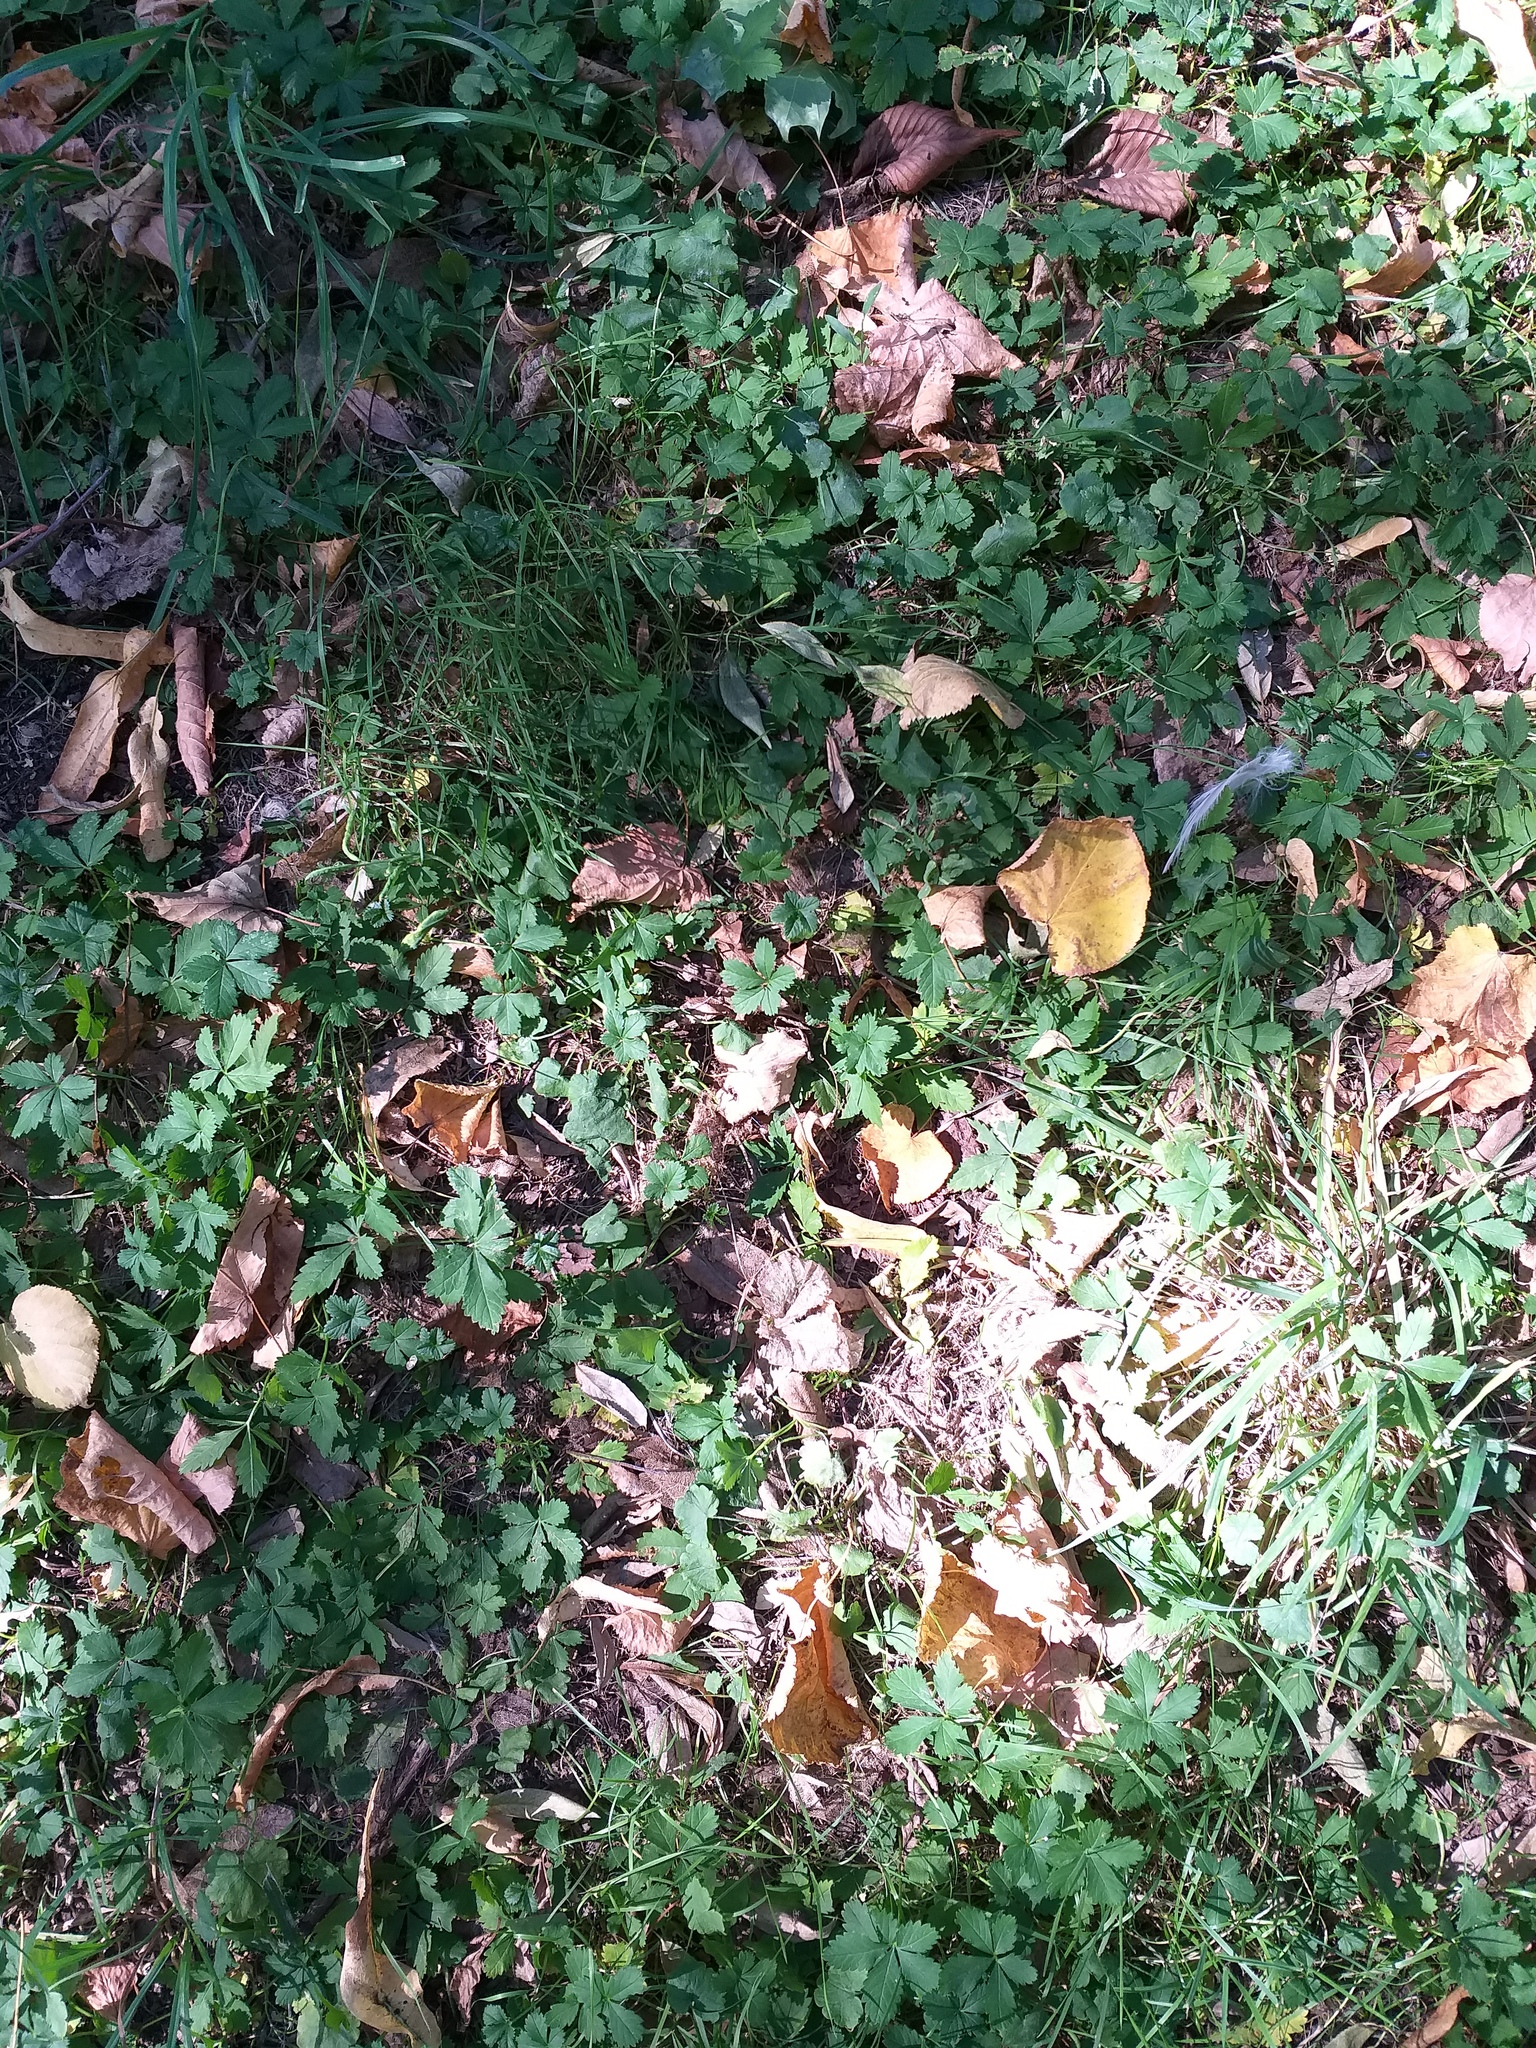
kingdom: Plantae
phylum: Tracheophyta
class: Magnoliopsida
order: Rosales
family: Rosaceae
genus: Potentilla
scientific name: Potentilla reptans
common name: Creeping cinquefoil
